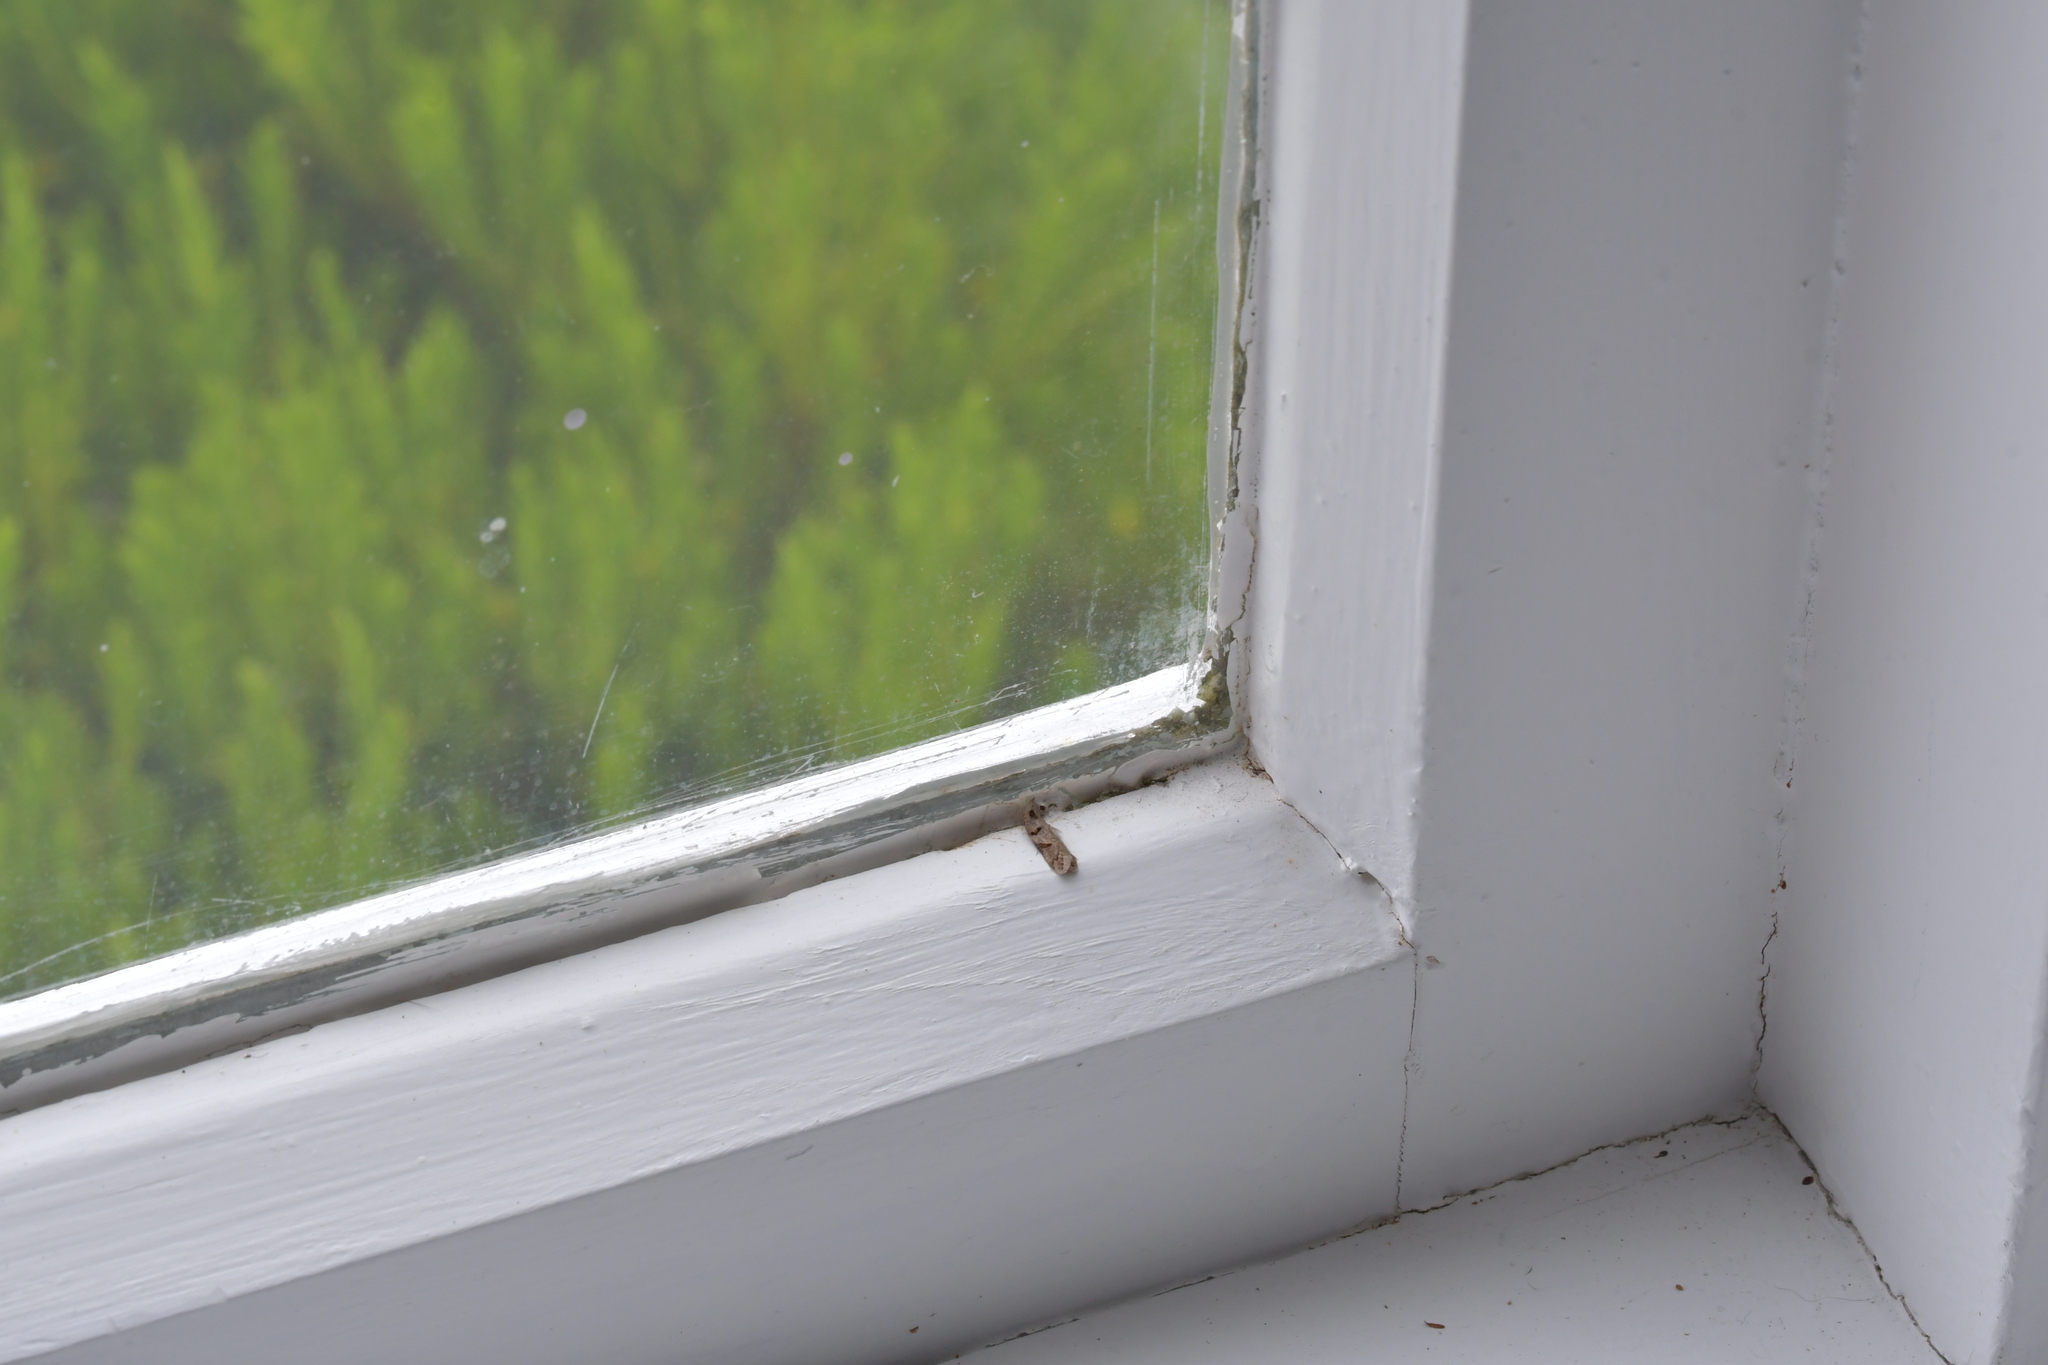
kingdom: Animalia
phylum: Arthropoda
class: Insecta
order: Lepidoptera
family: Oecophoridae
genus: Trachypepla
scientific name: Trachypepla contritella
